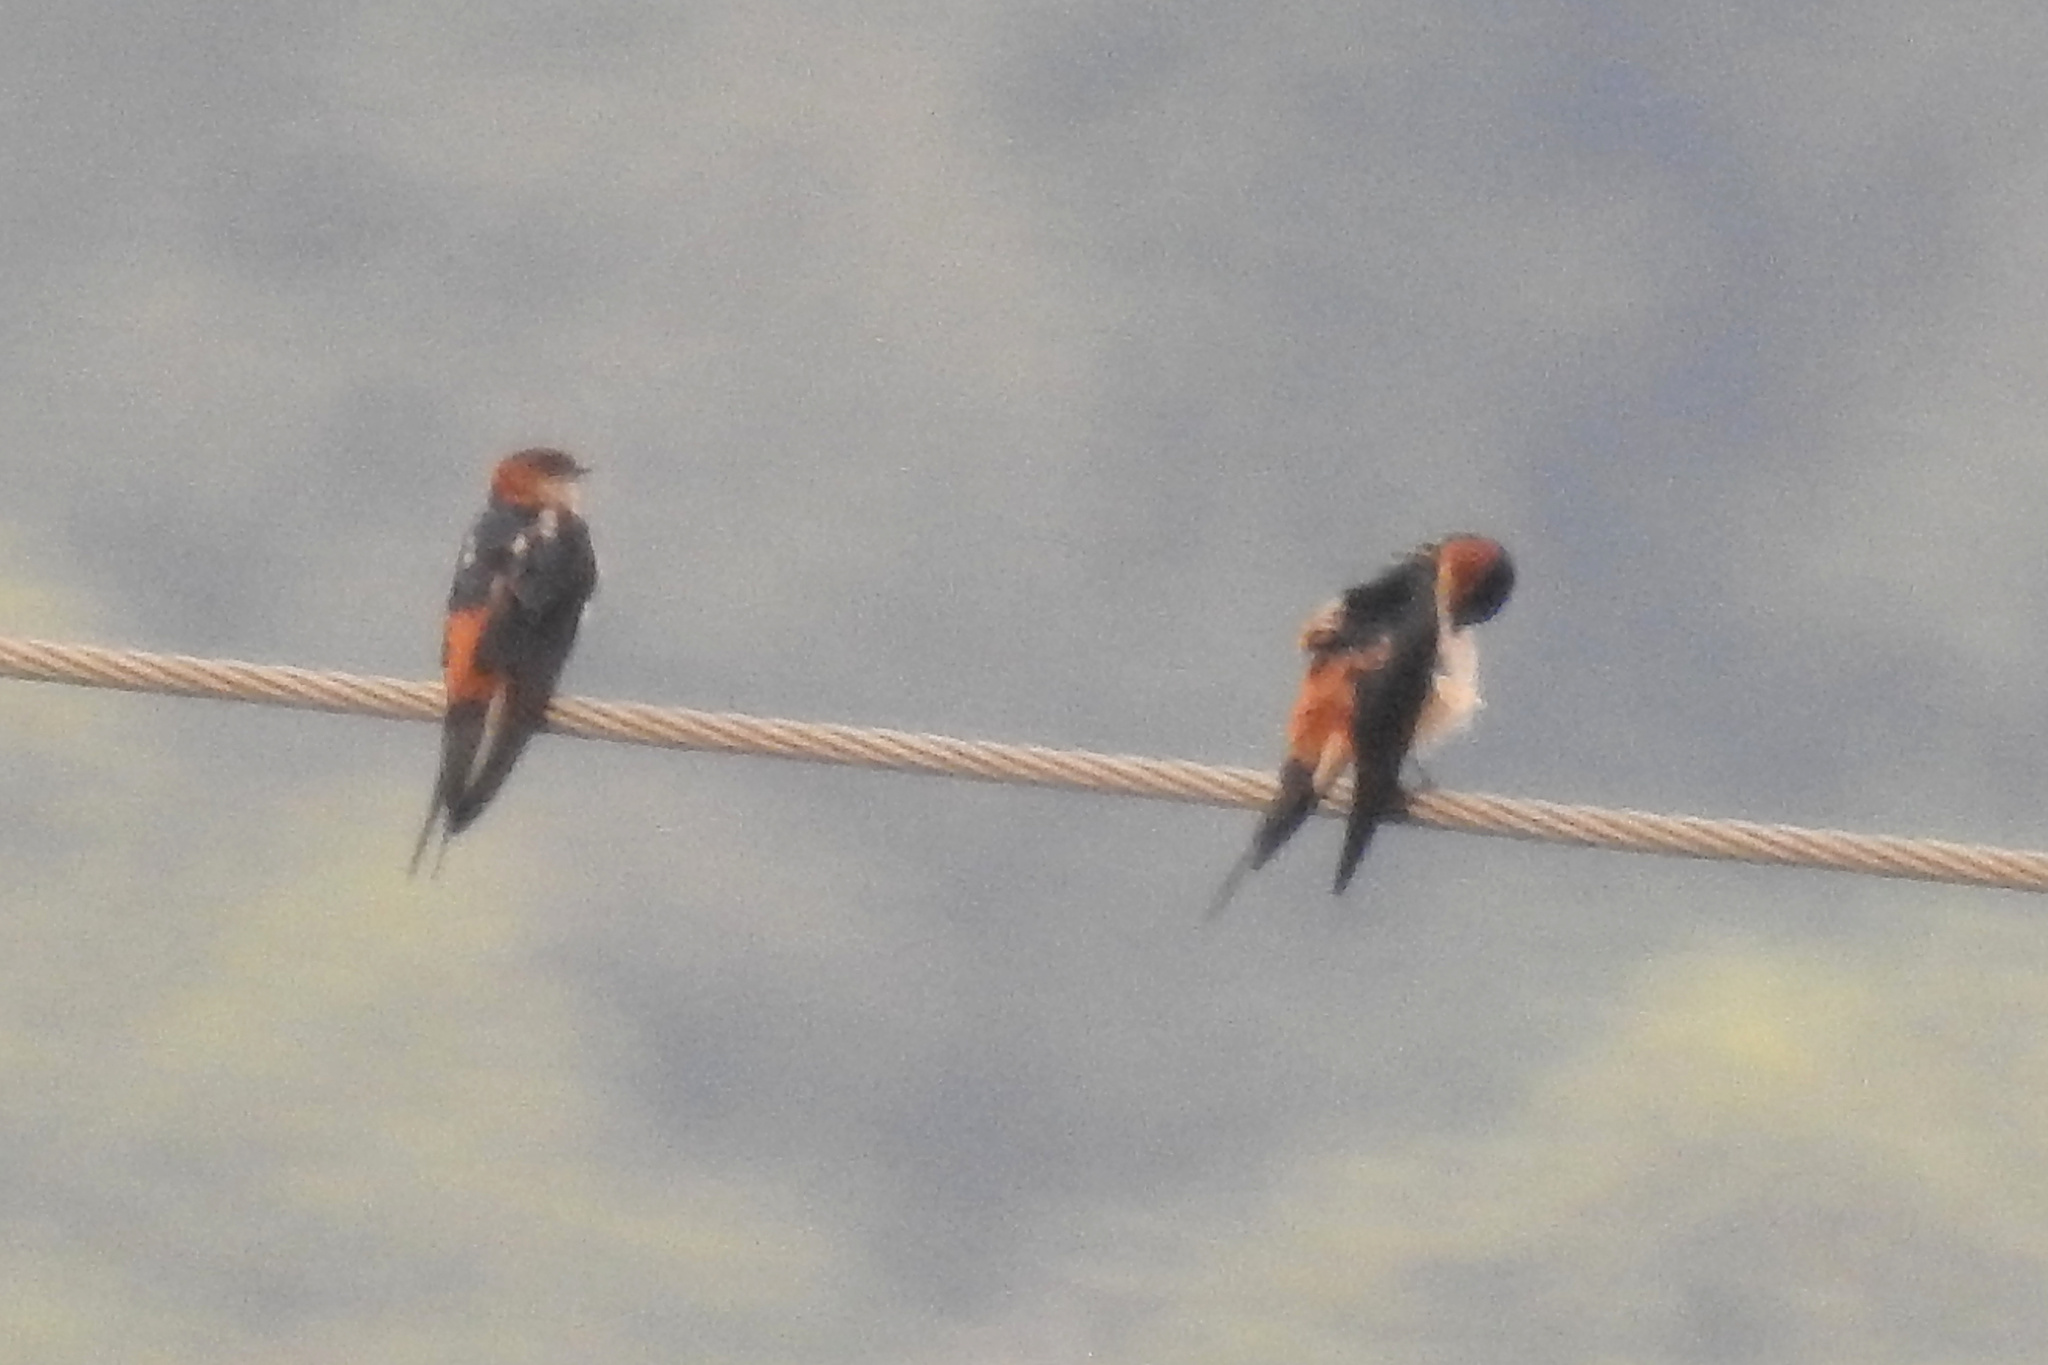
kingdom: Animalia
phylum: Chordata
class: Aves
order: Passeriformes
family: Hirundinidae
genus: Cecropis
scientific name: Cecropis daurica
